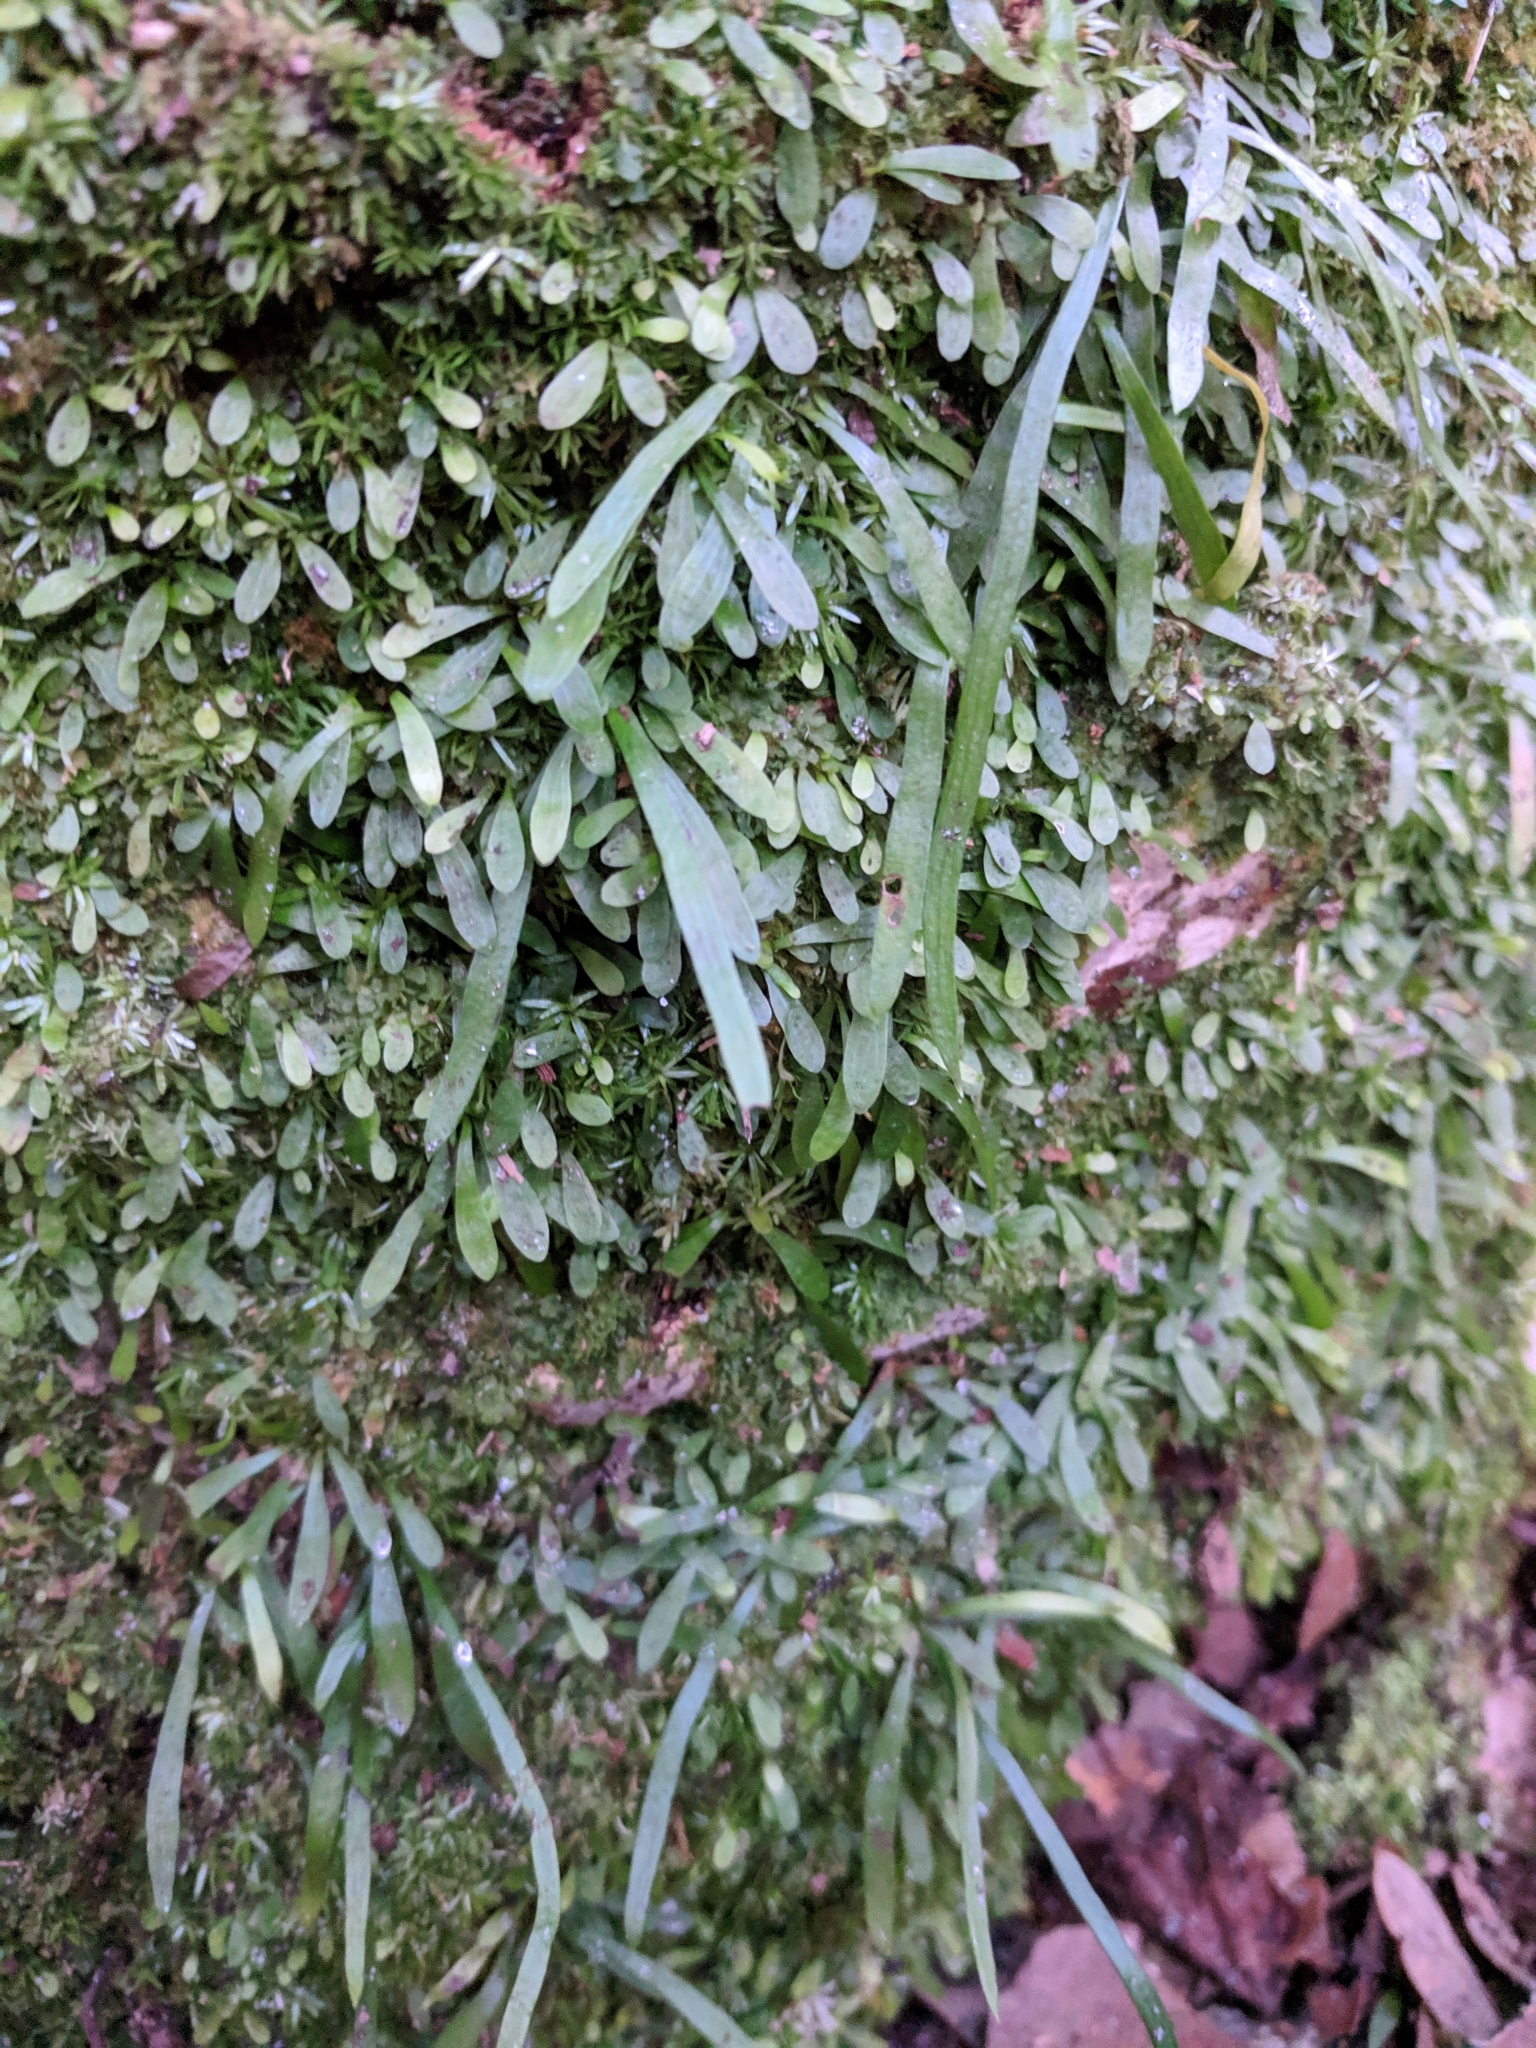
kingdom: Plantae
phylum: Tracheophyta
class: Polypodiopsida
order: Polypodiales
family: Pteridaceae
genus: Vittaria
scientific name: Vittaria lineata
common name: Shoestring fern
